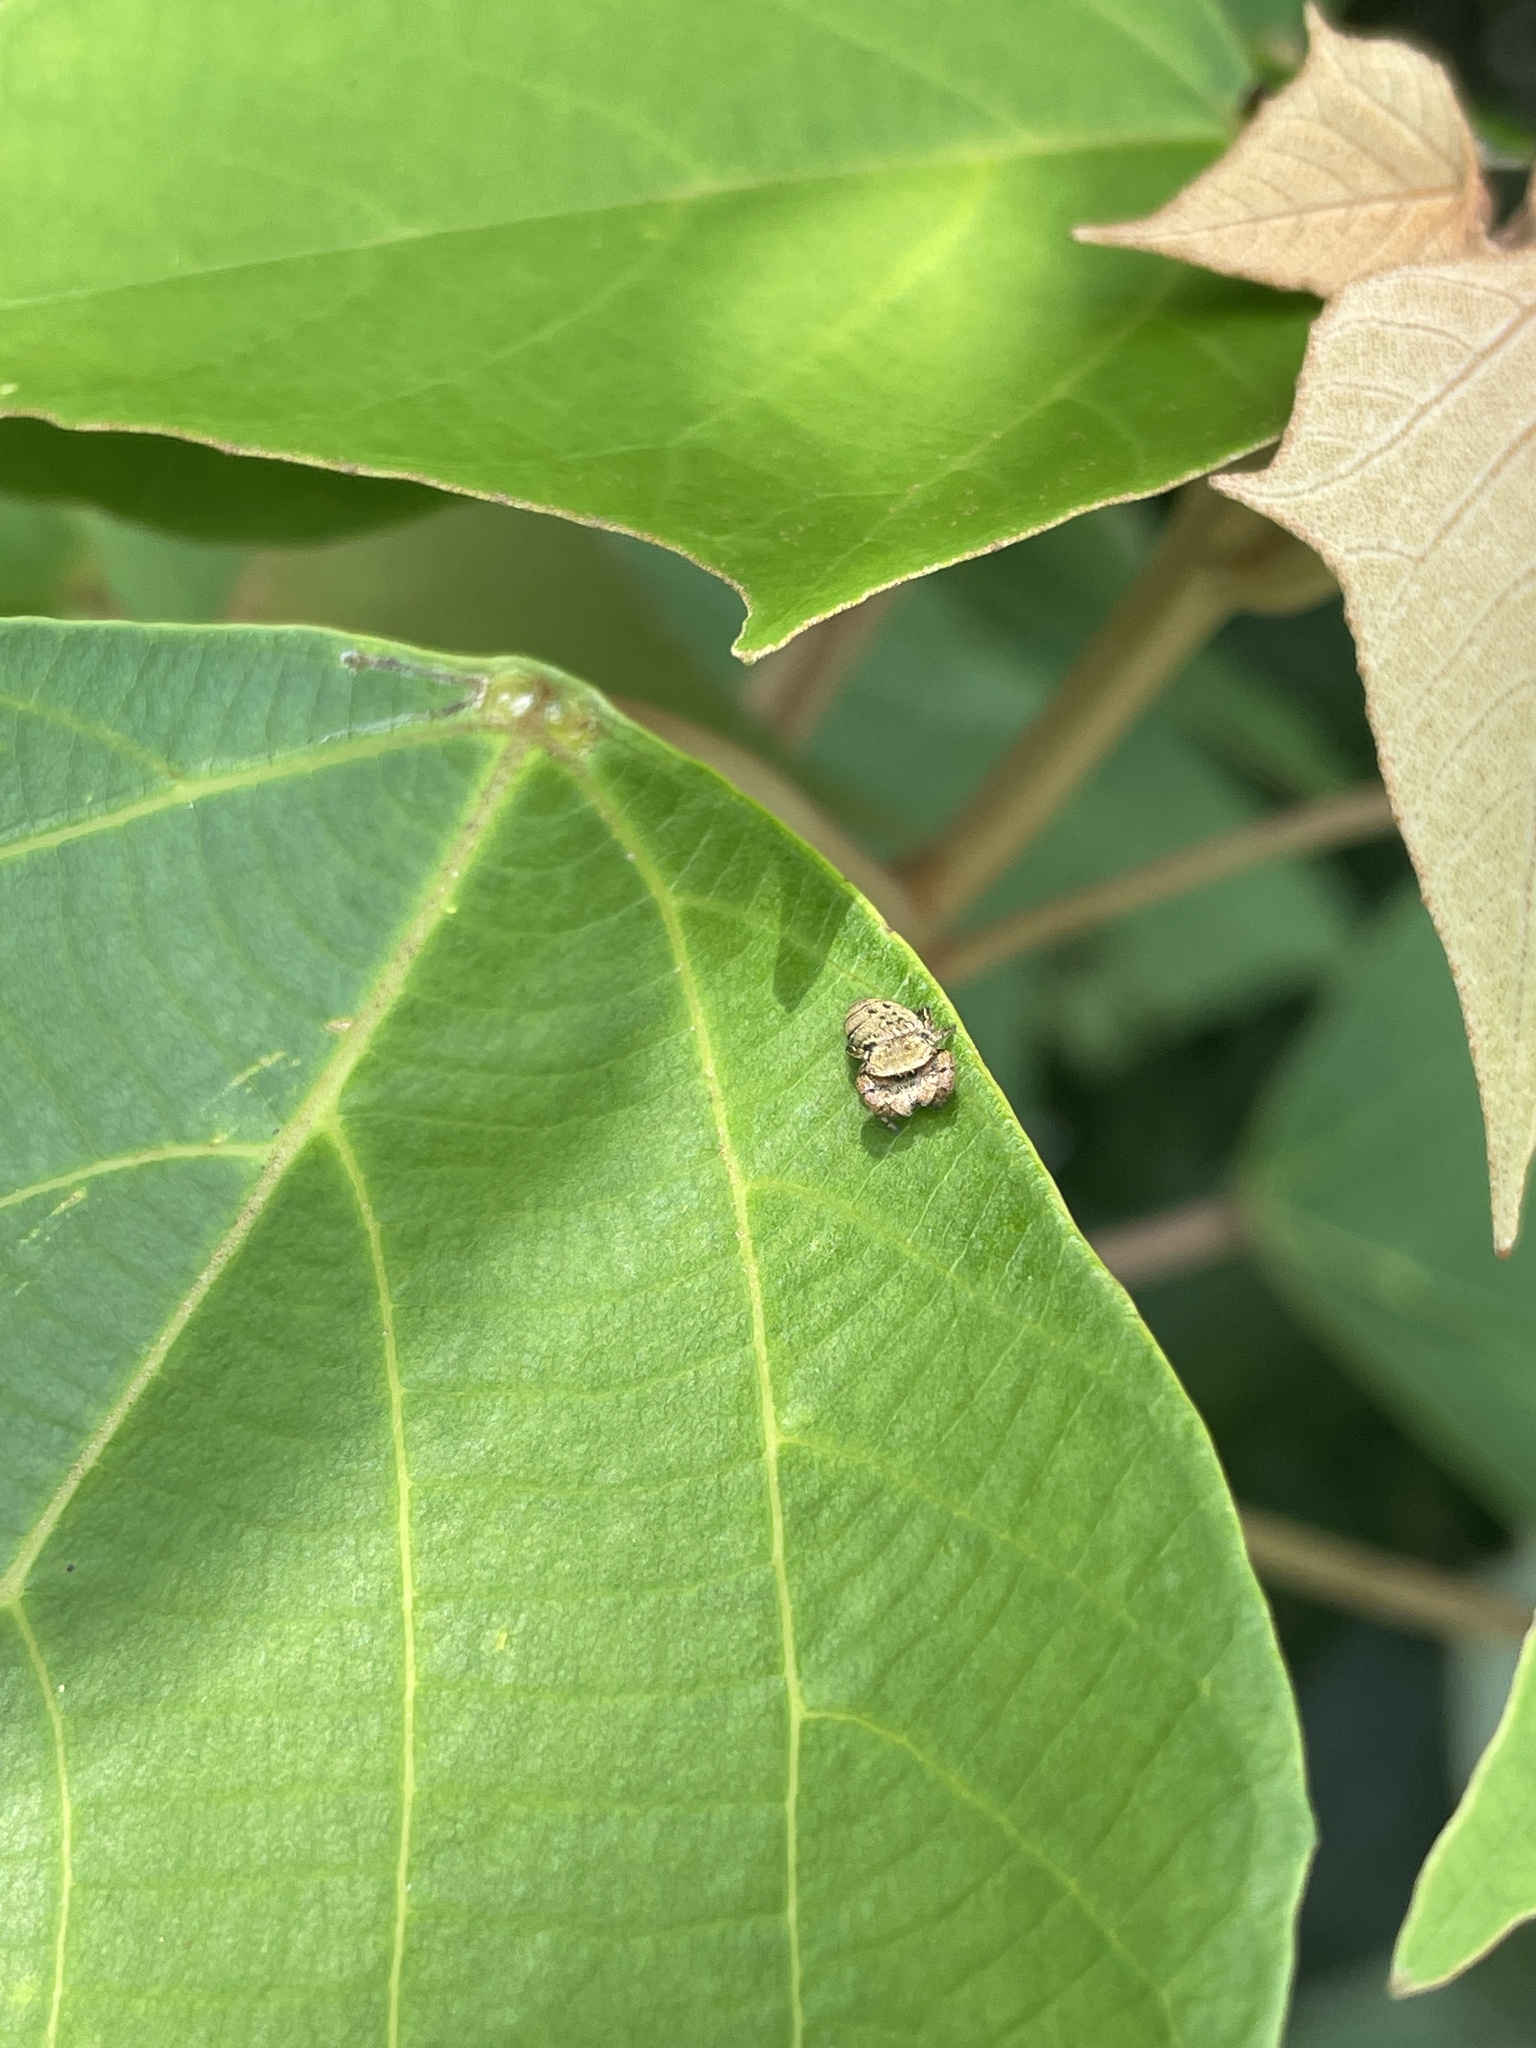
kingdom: Animalia
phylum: Arthropoda
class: Arachnida
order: Araneae
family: Salticidae
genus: Rhene
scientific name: Rhene flavicomans
